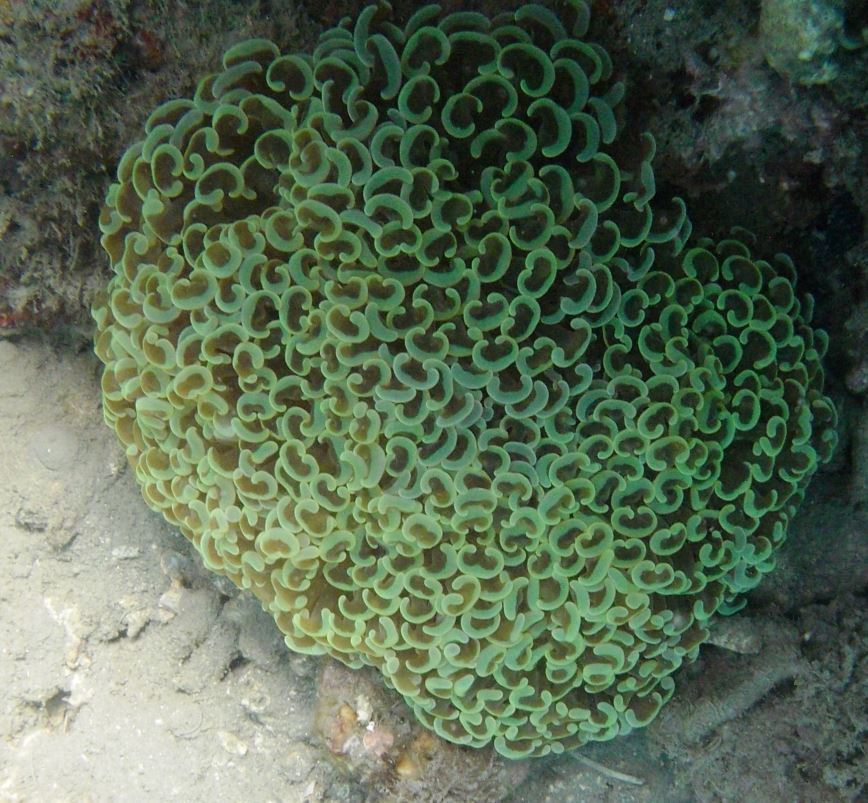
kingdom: Animalia
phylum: Cnidaria
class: Anthozoa
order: Scleractinia
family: Euphylliidae
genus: Fimbriaphyllia
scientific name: Fimbriaphyllia ancora
